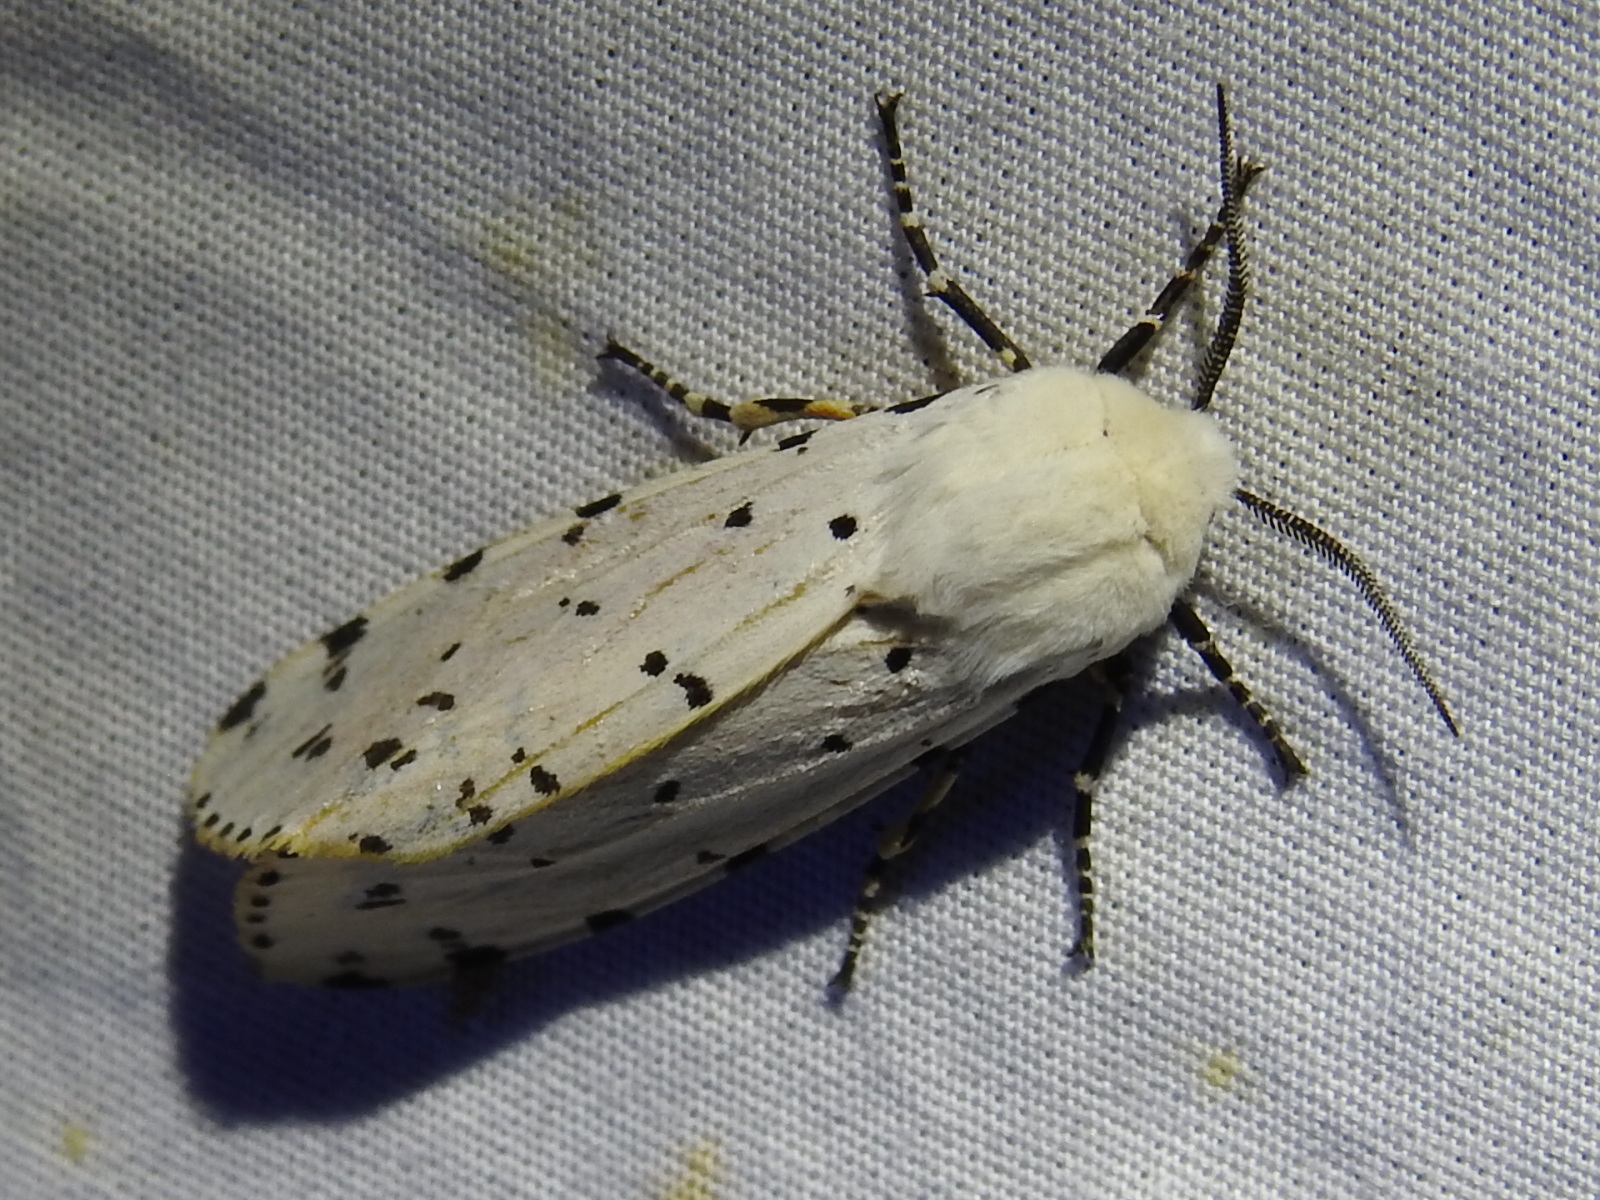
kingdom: Animalia
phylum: Arthropoda
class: Insecta
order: Lepidoptera
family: Erebidae
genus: Estigmene
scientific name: Estigmene acrea
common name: Salt marsh moth
